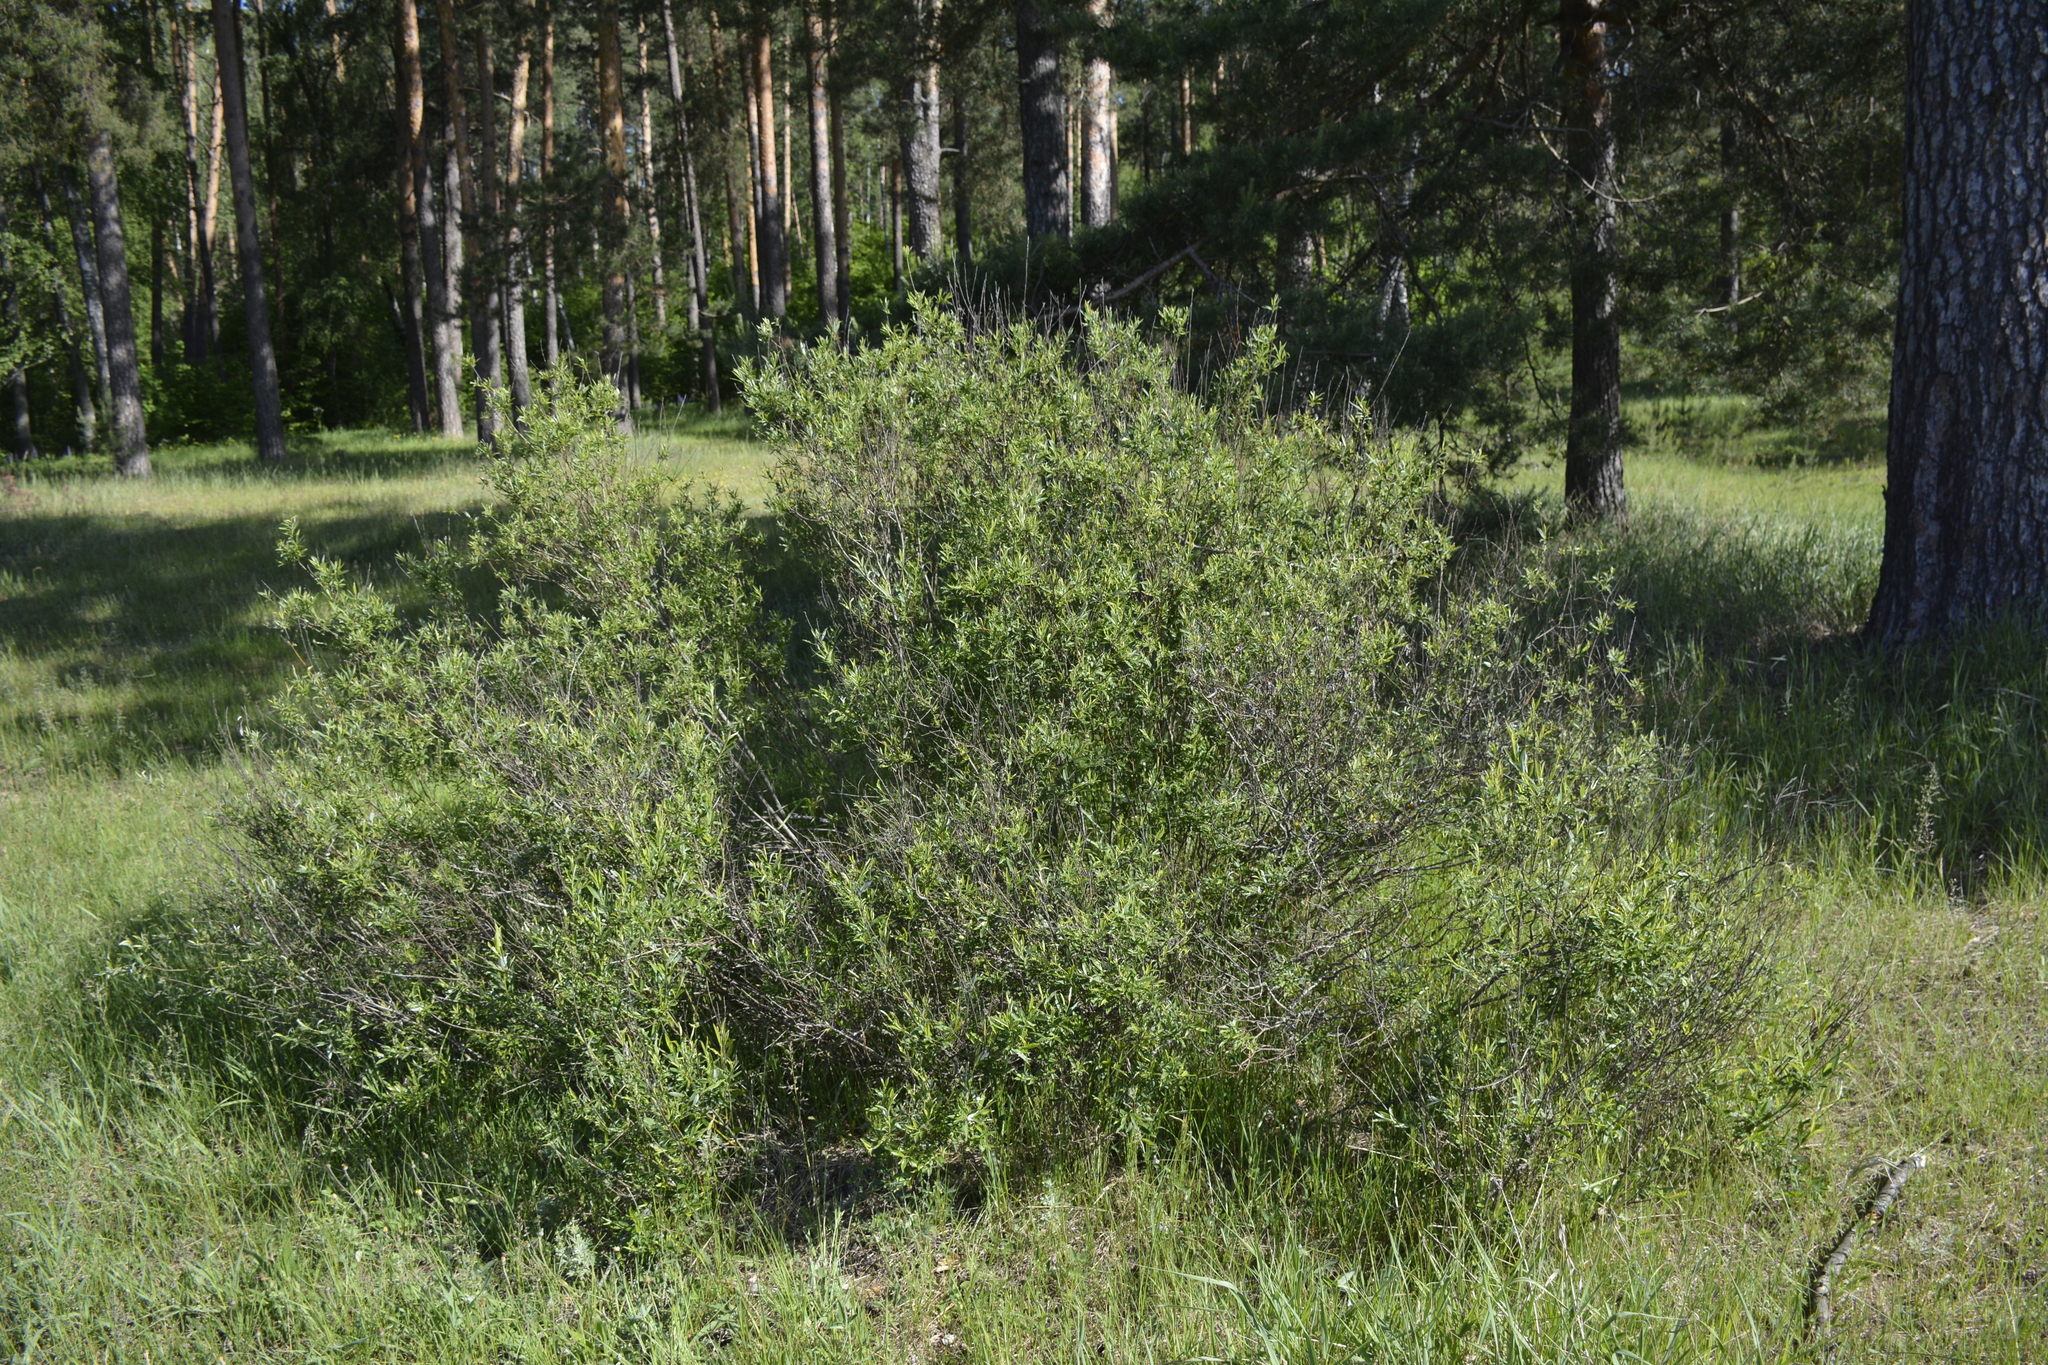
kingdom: Plantae
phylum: Tracheophyta
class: Magnoliopsida
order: Malpighiales
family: Salicaceae
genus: Salix
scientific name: Salix rosmarinifolia
